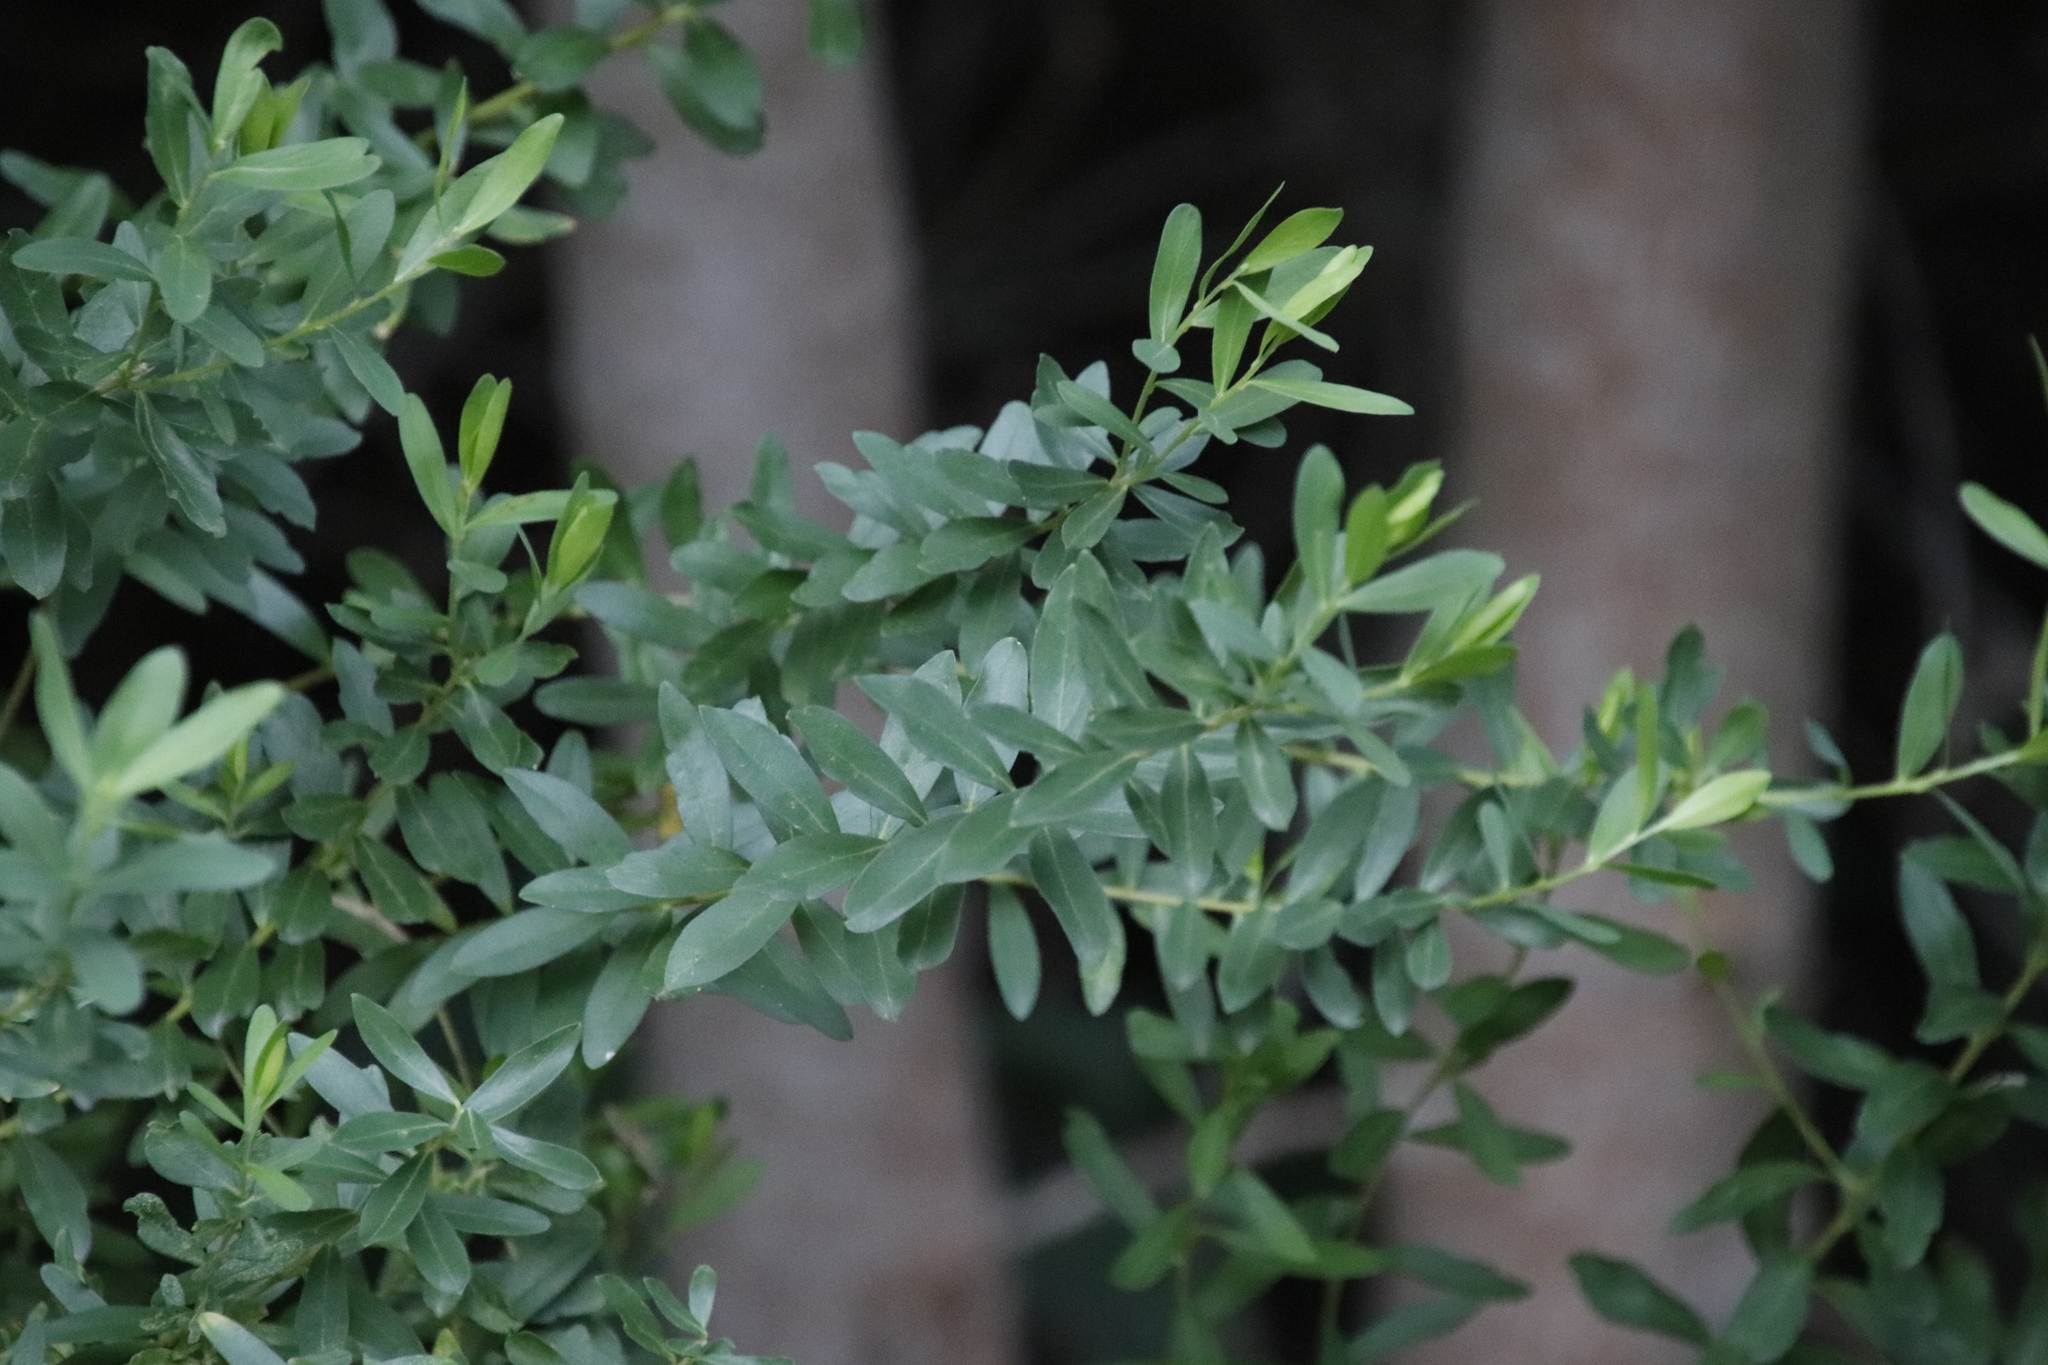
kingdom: Plantae
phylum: Tracheophyta
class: Magnoliopsida
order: Fabales
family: Polygalaceae
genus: Polygala
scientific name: Polygala myrtifolia
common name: Myrtle-leaf milkwort
